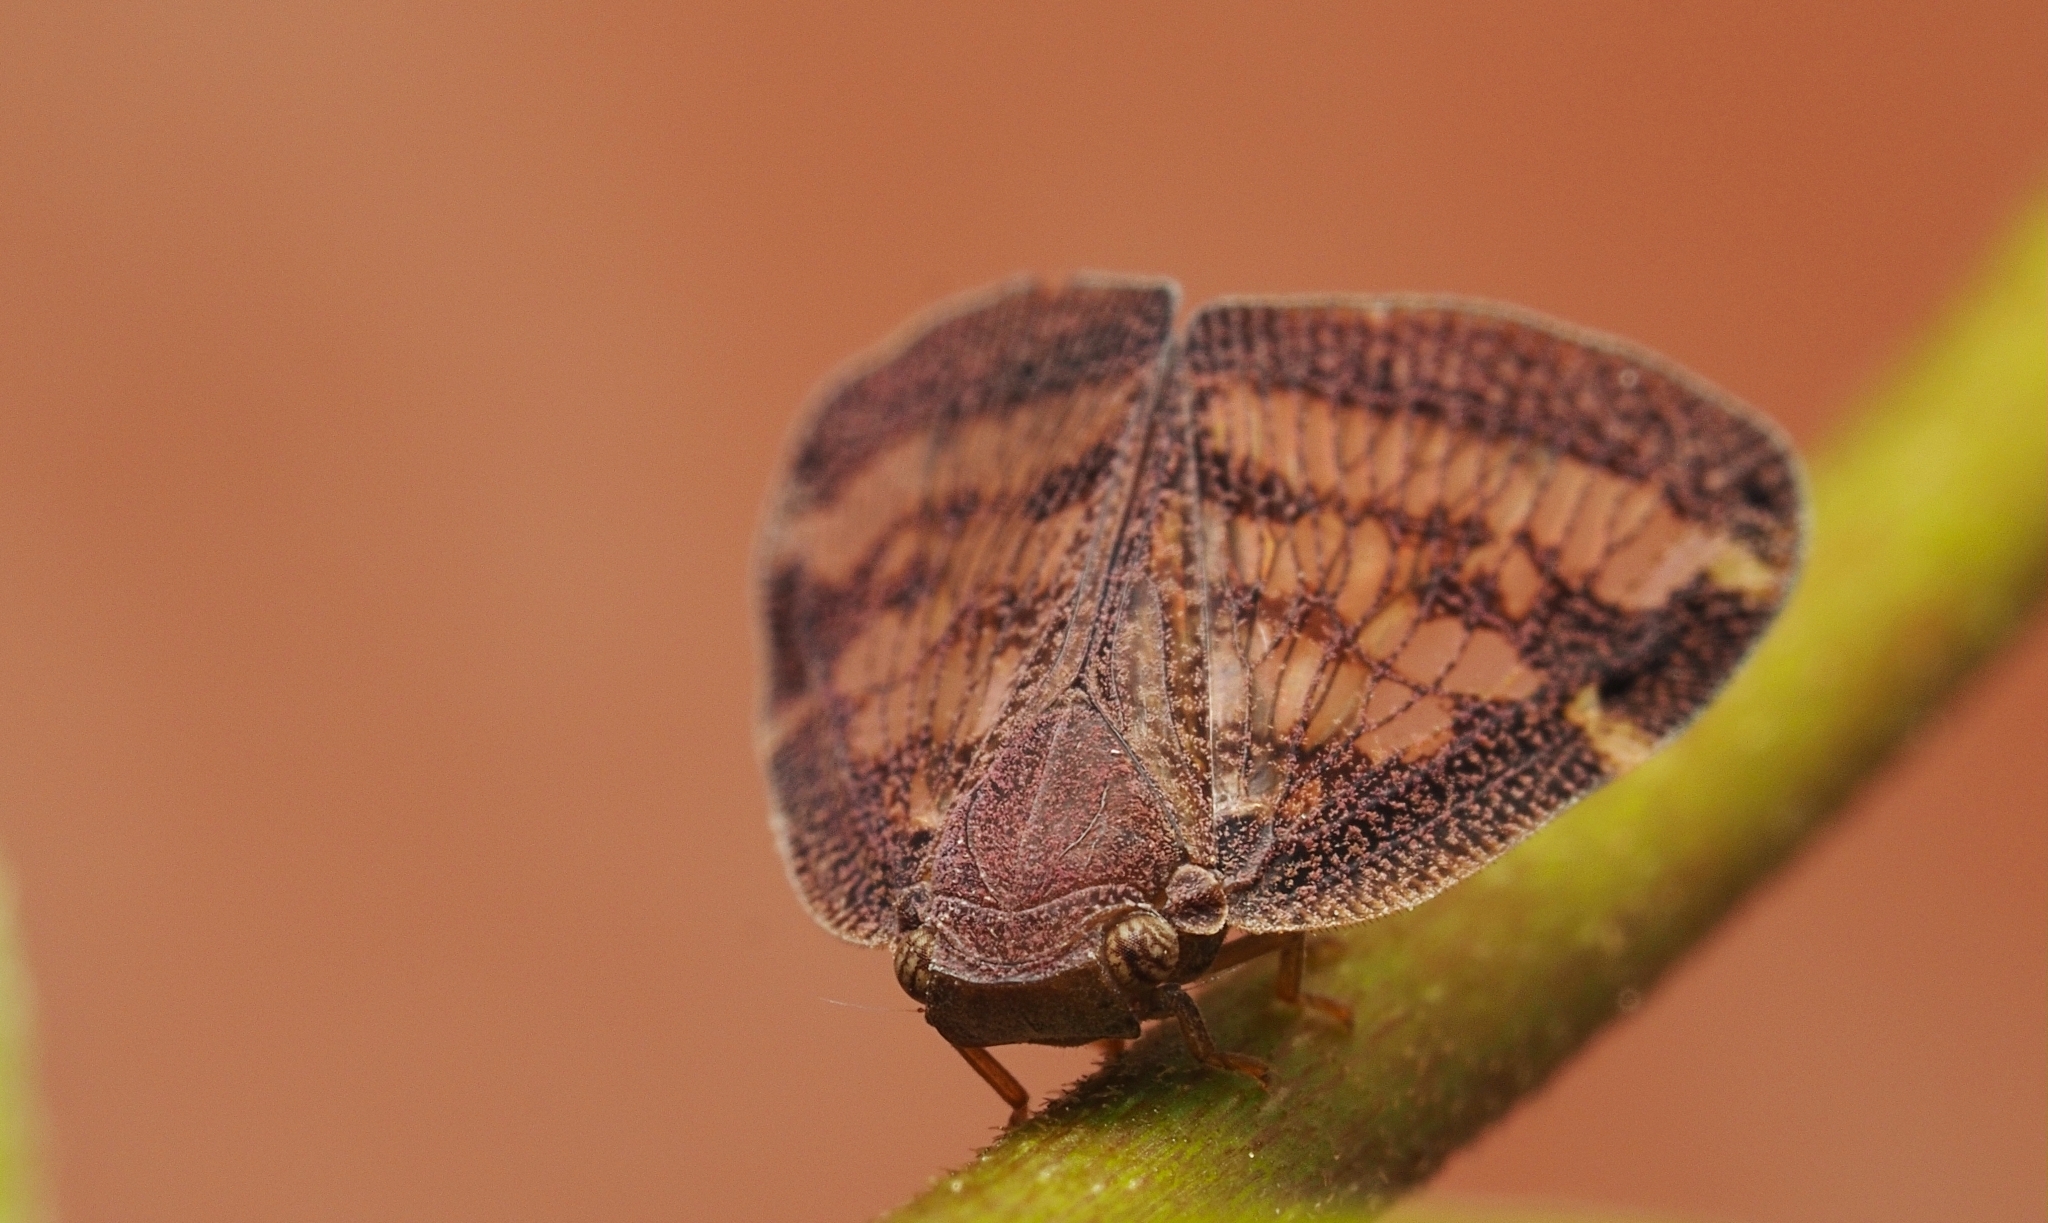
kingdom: Animalia
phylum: Arthropoda
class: Insecta
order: Hemiptera
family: Ricaniidae
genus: Scolypopa
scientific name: Scolypopa australis
